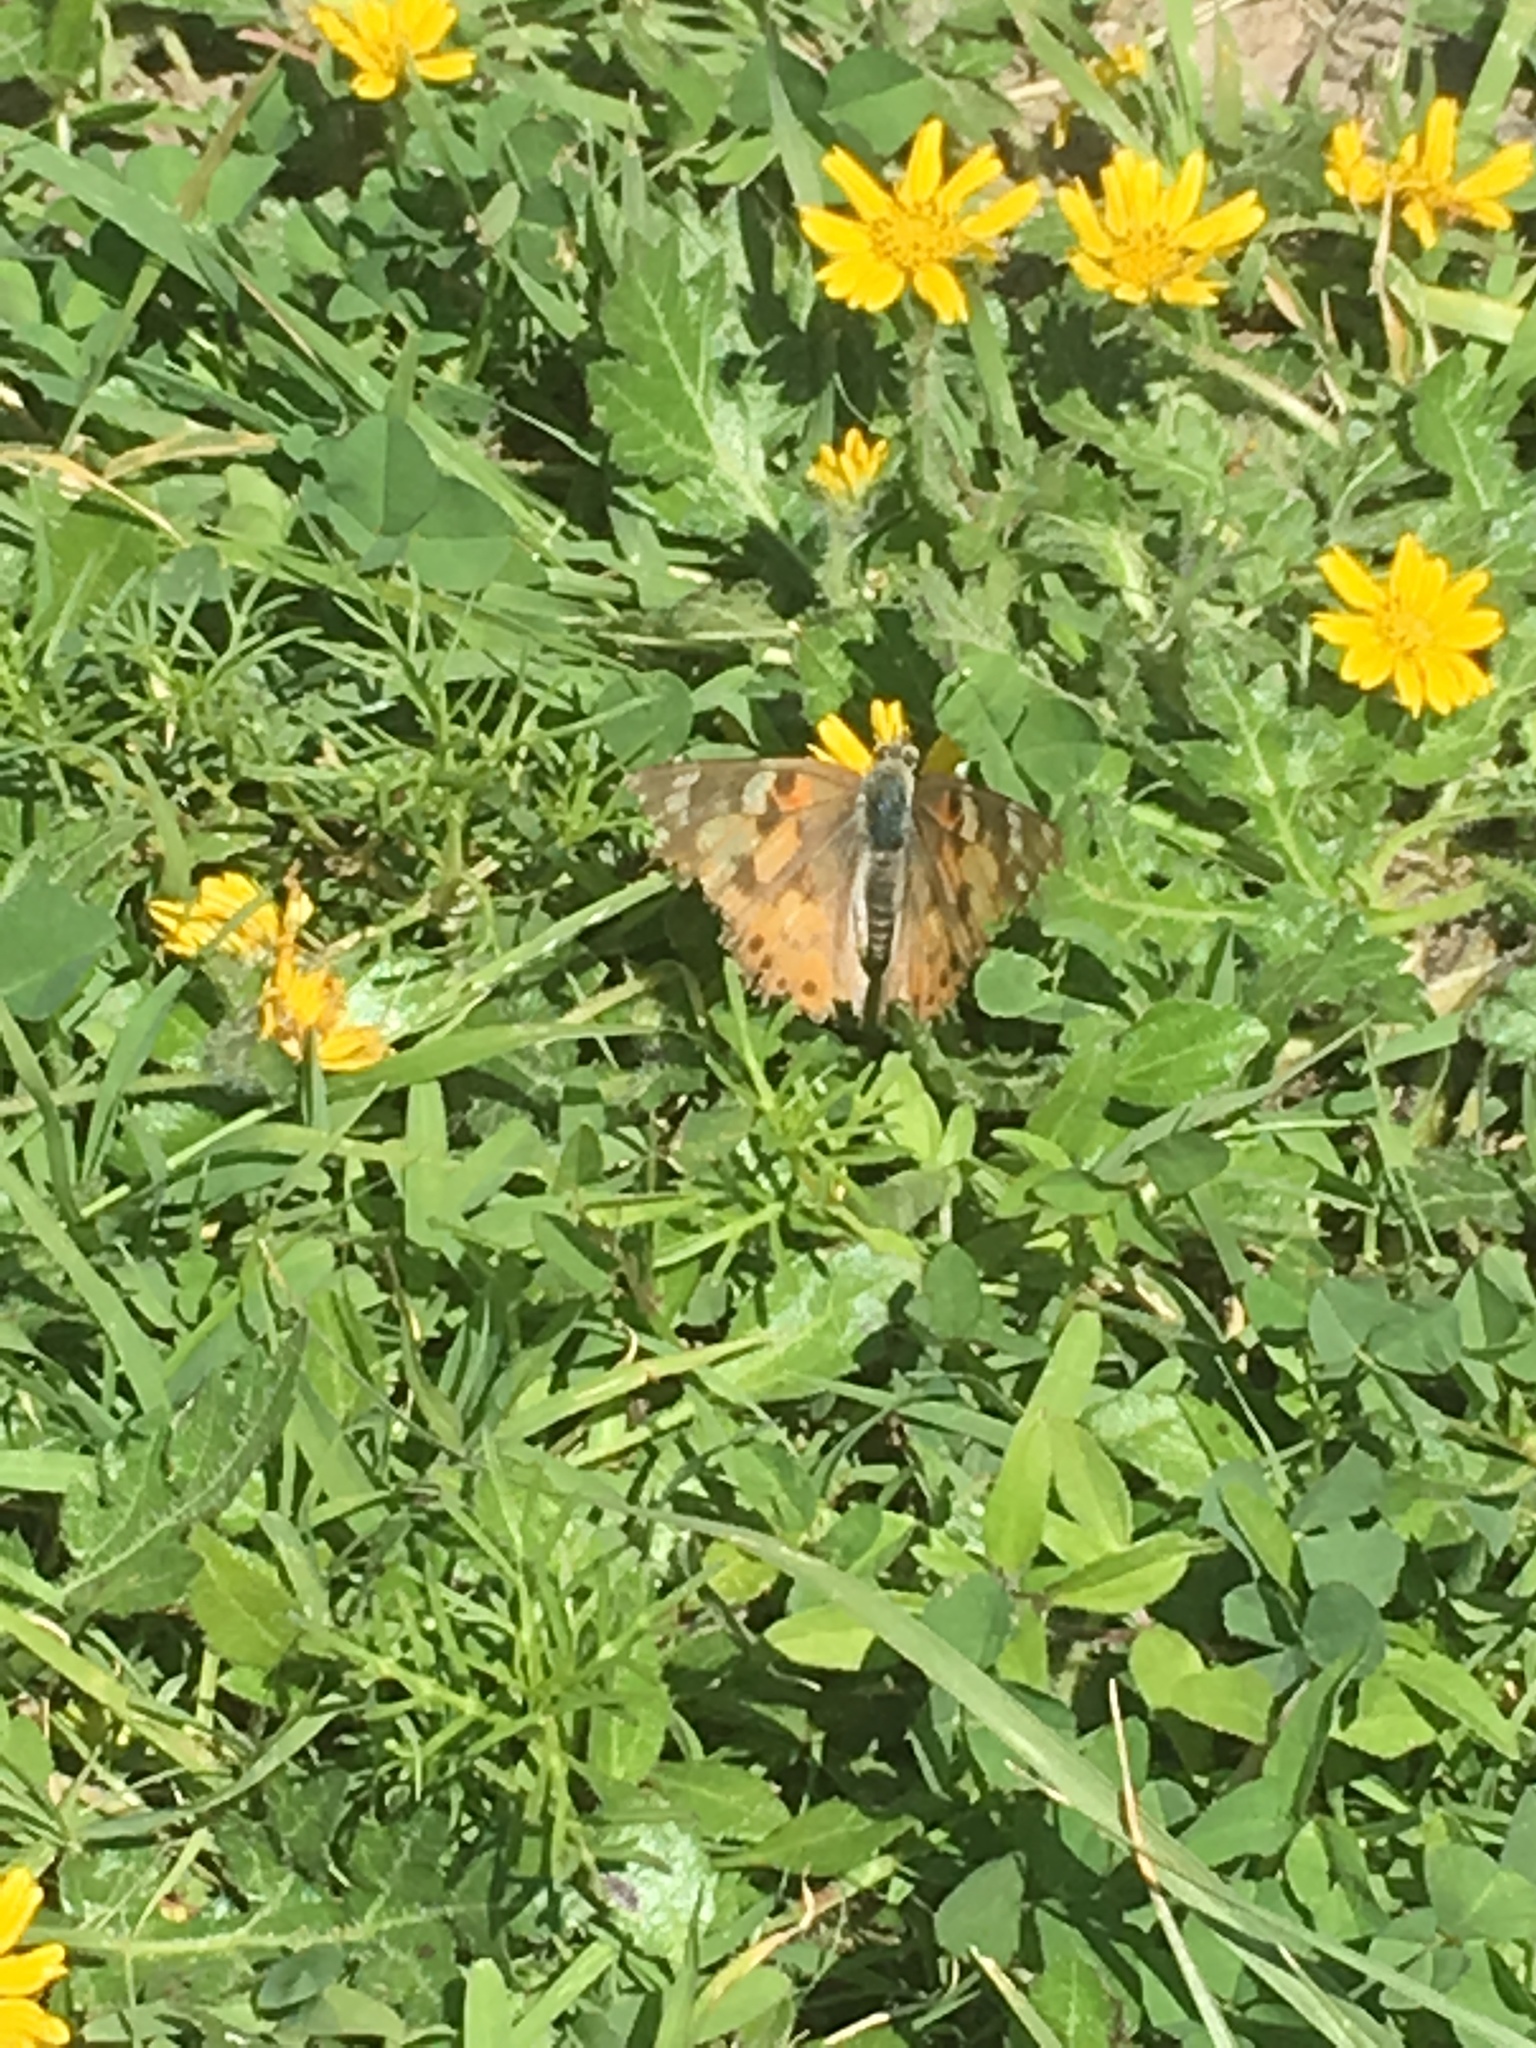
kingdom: Animalia
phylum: Arthropoda
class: Insecta
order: Lepidoptera
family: Nymphalidae
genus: Vanessa
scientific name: Vanessa cardui
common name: Painted lady
